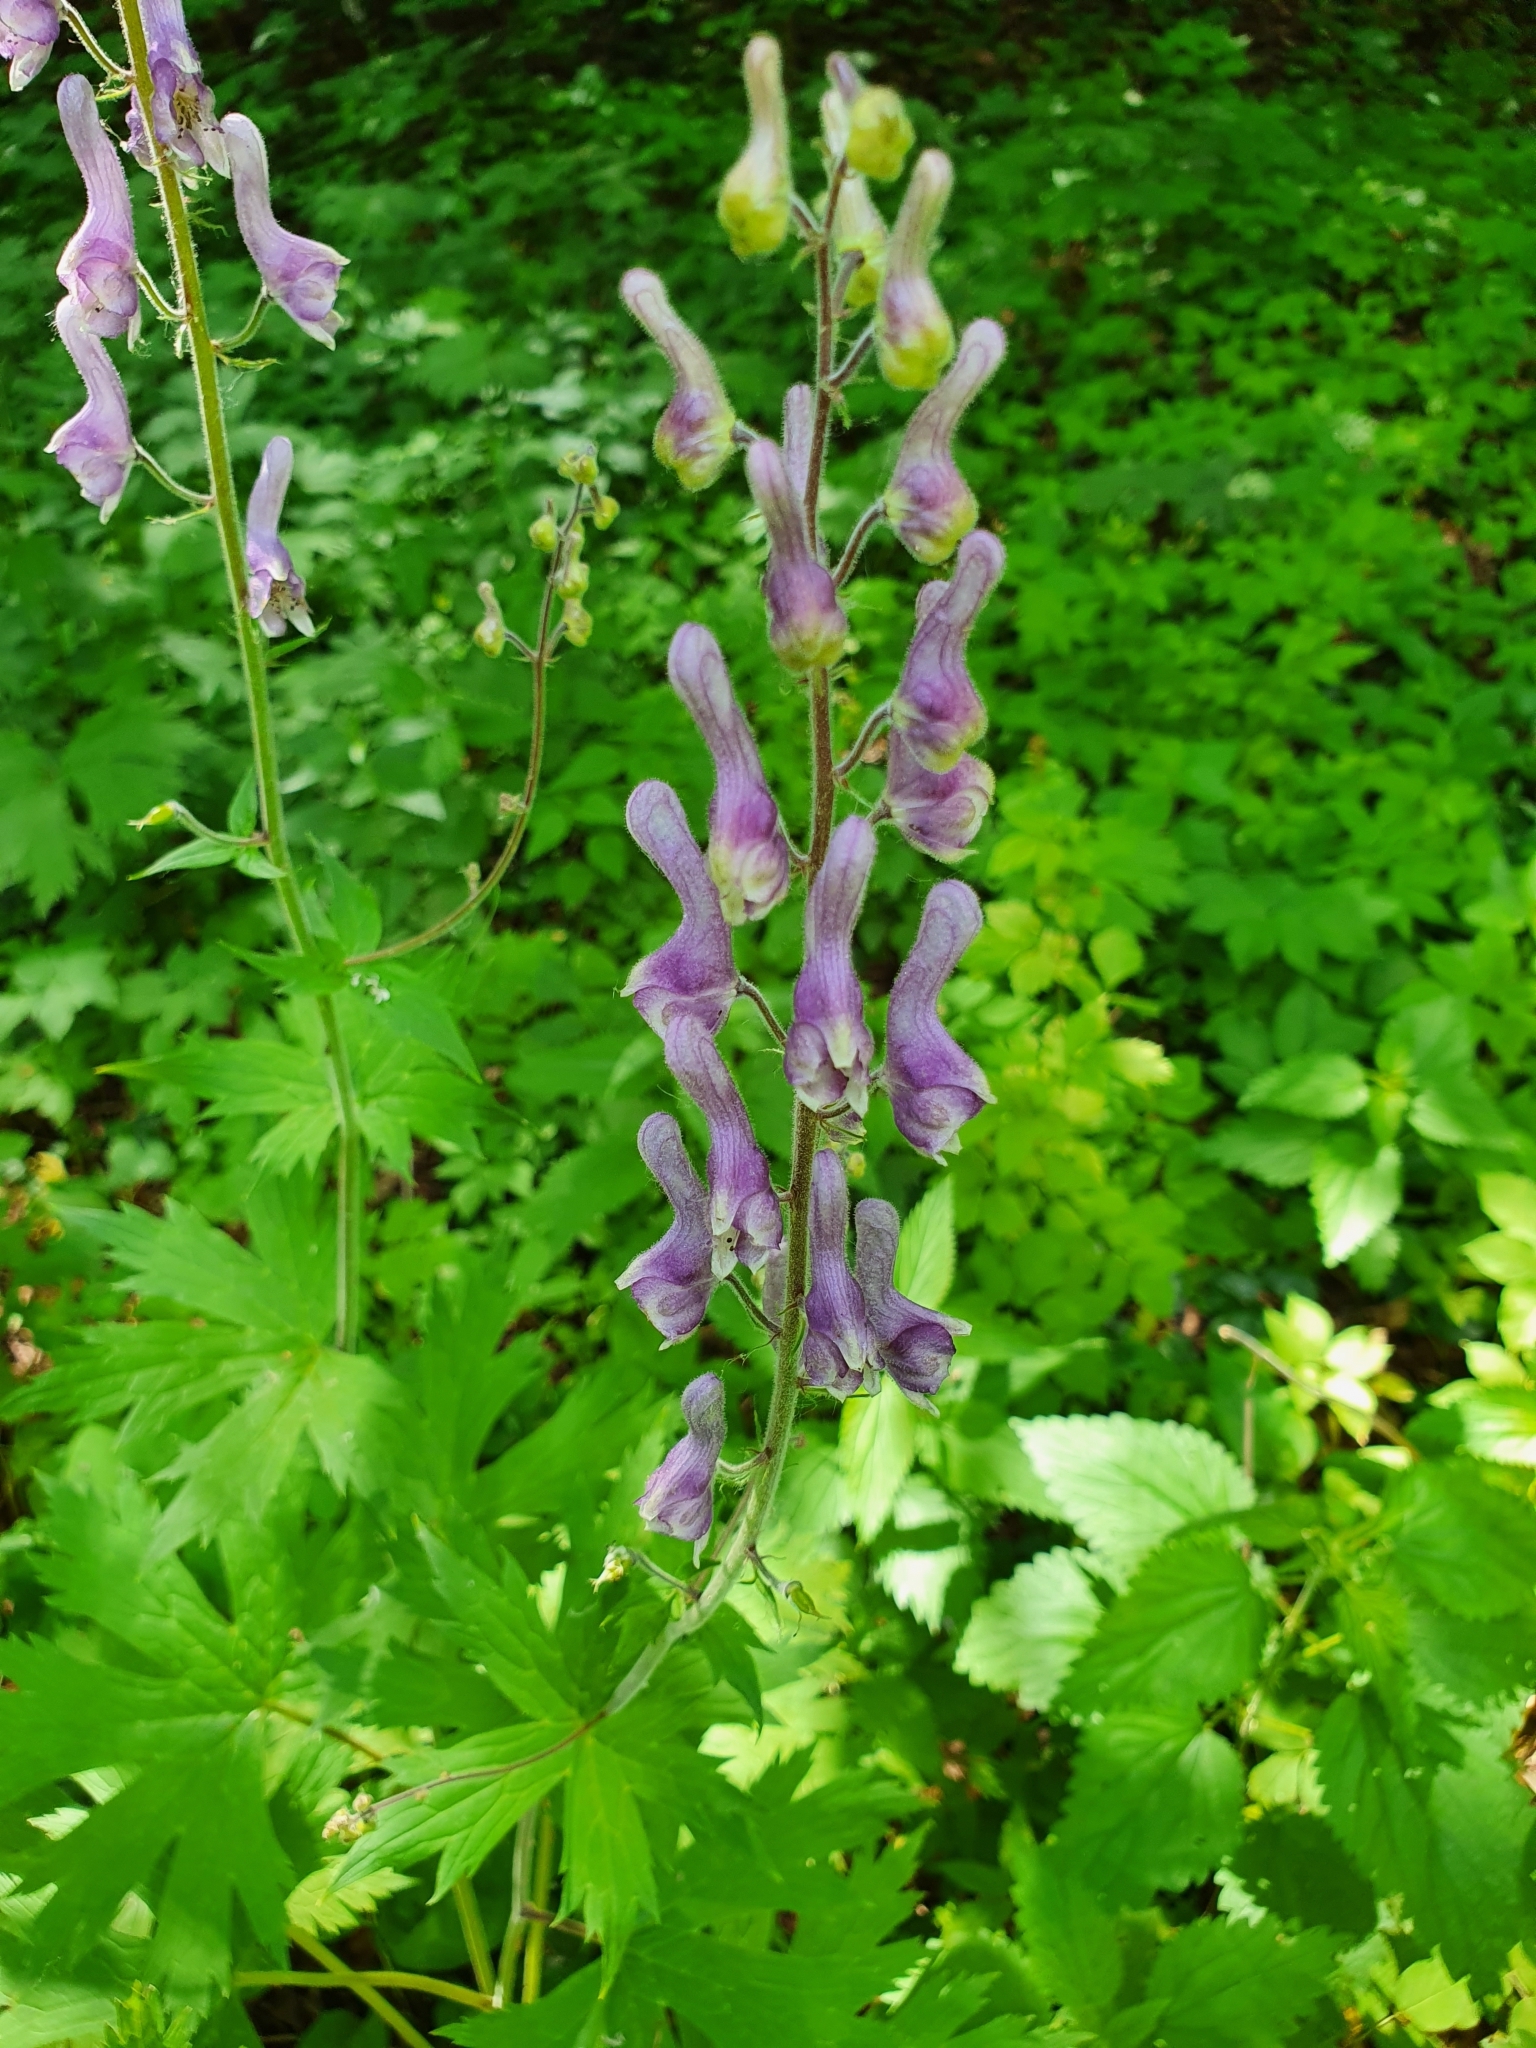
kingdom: Plantae
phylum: Tracheophyta
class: Magnoliopsida
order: Ranunculales
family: Ranunculaceae
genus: Aconitum
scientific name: Aconitum septentrionale
